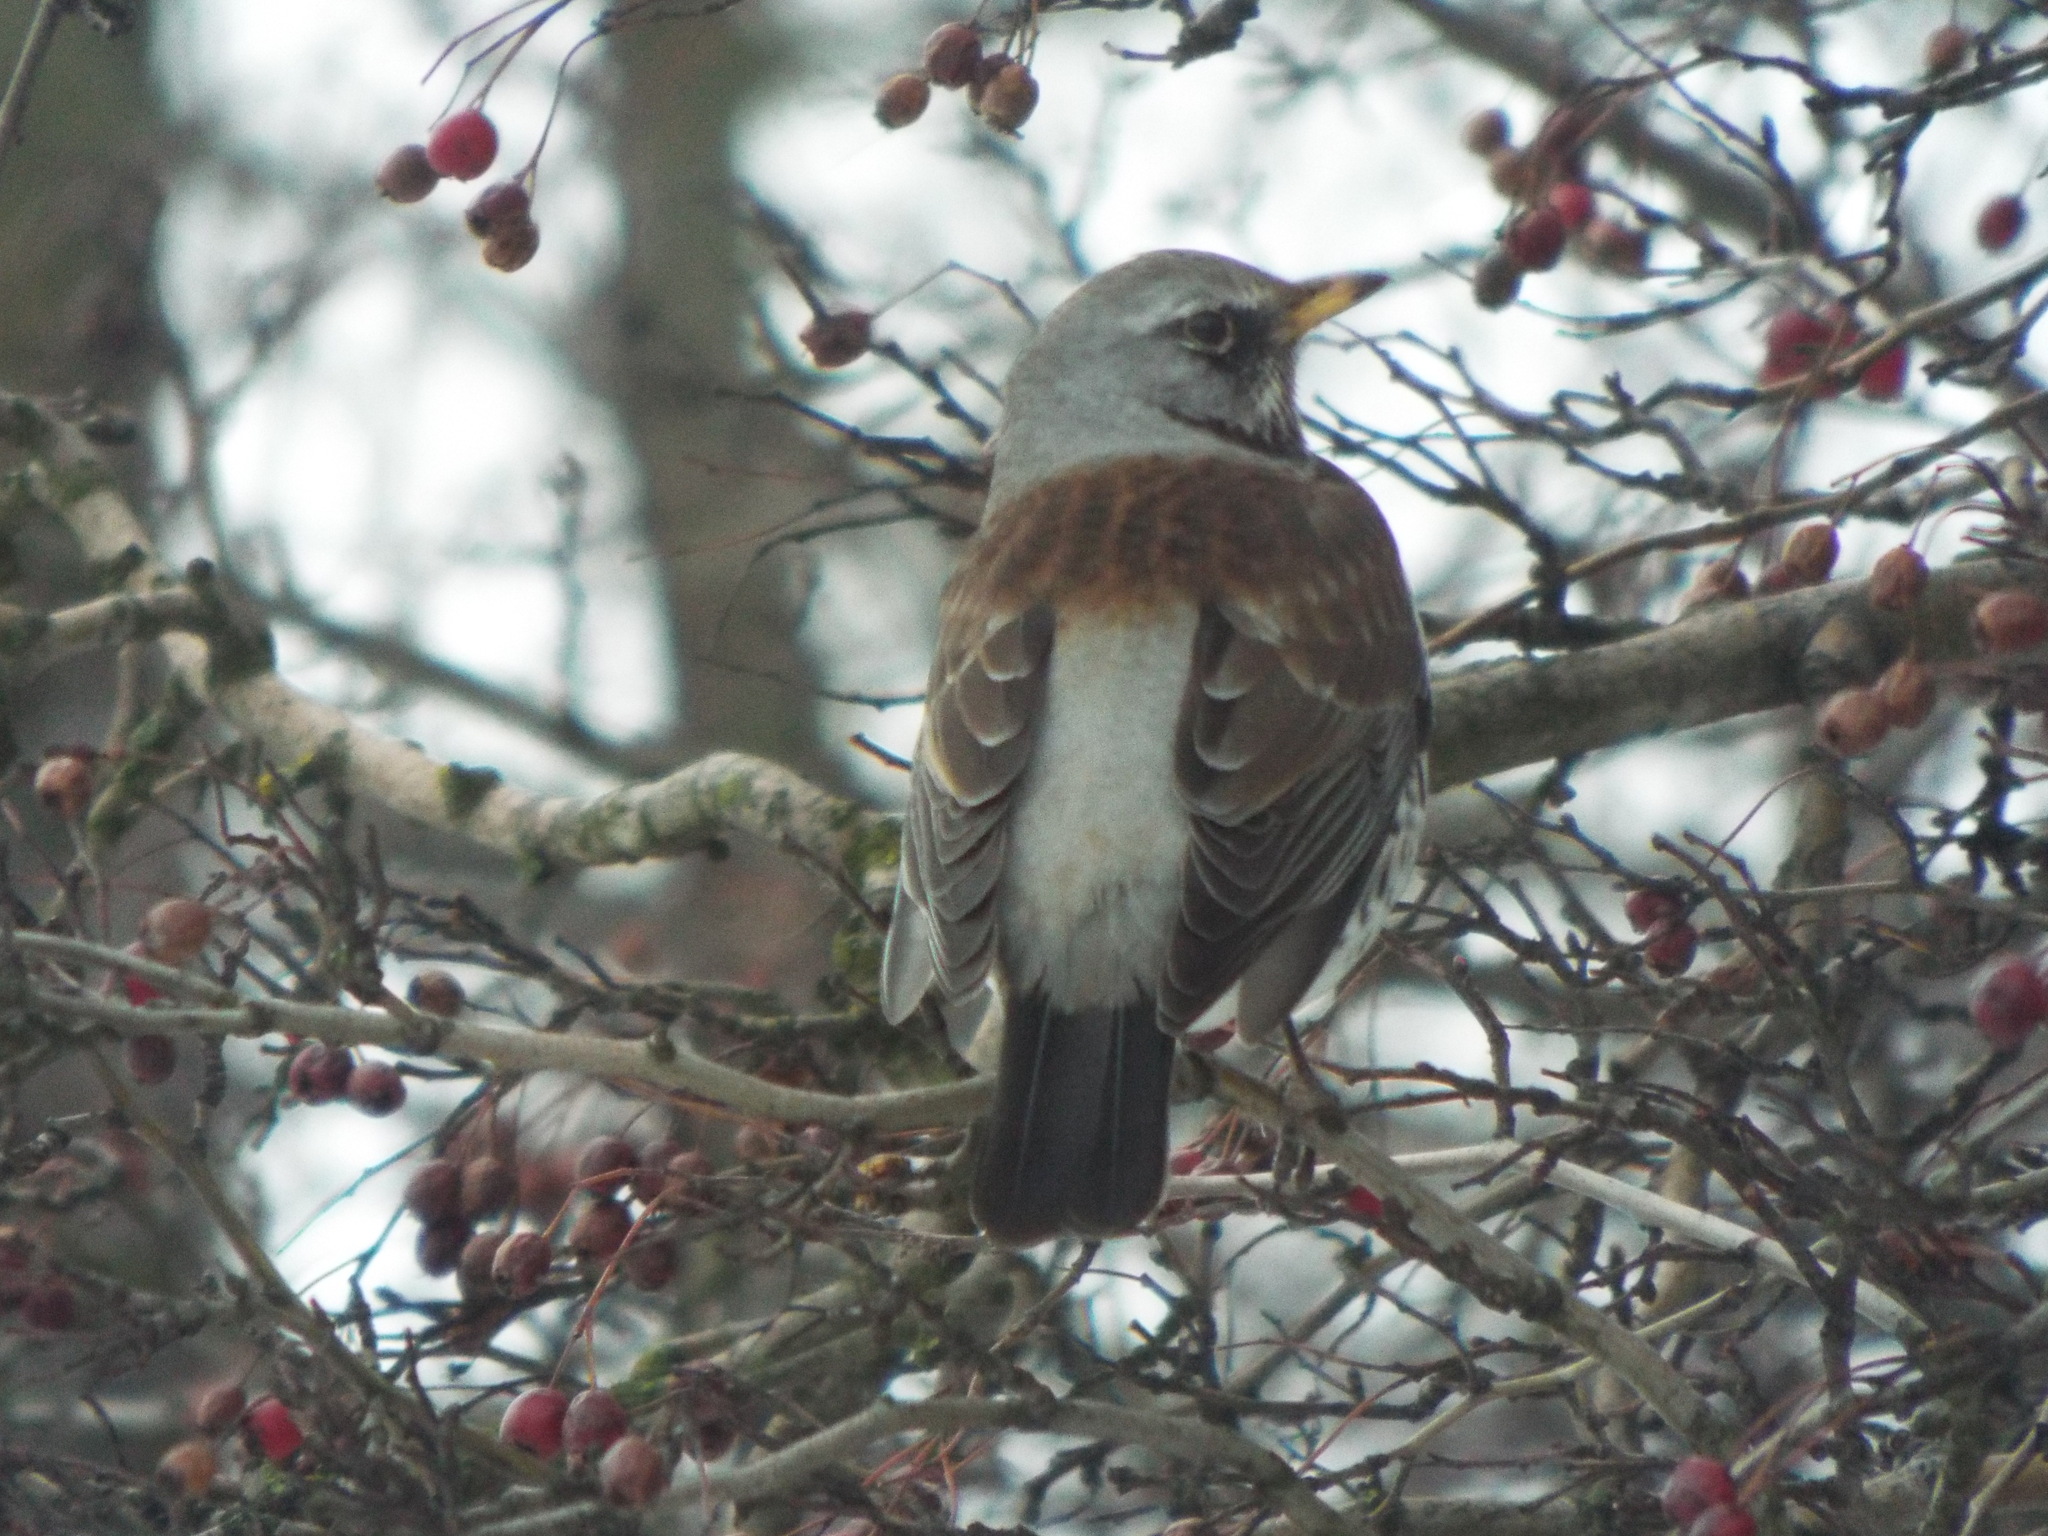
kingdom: Animalia
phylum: Chordata
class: Aves
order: Passeriformes
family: Turdidae
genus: Turdus
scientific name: Turdus pilaris
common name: Fieldfare
